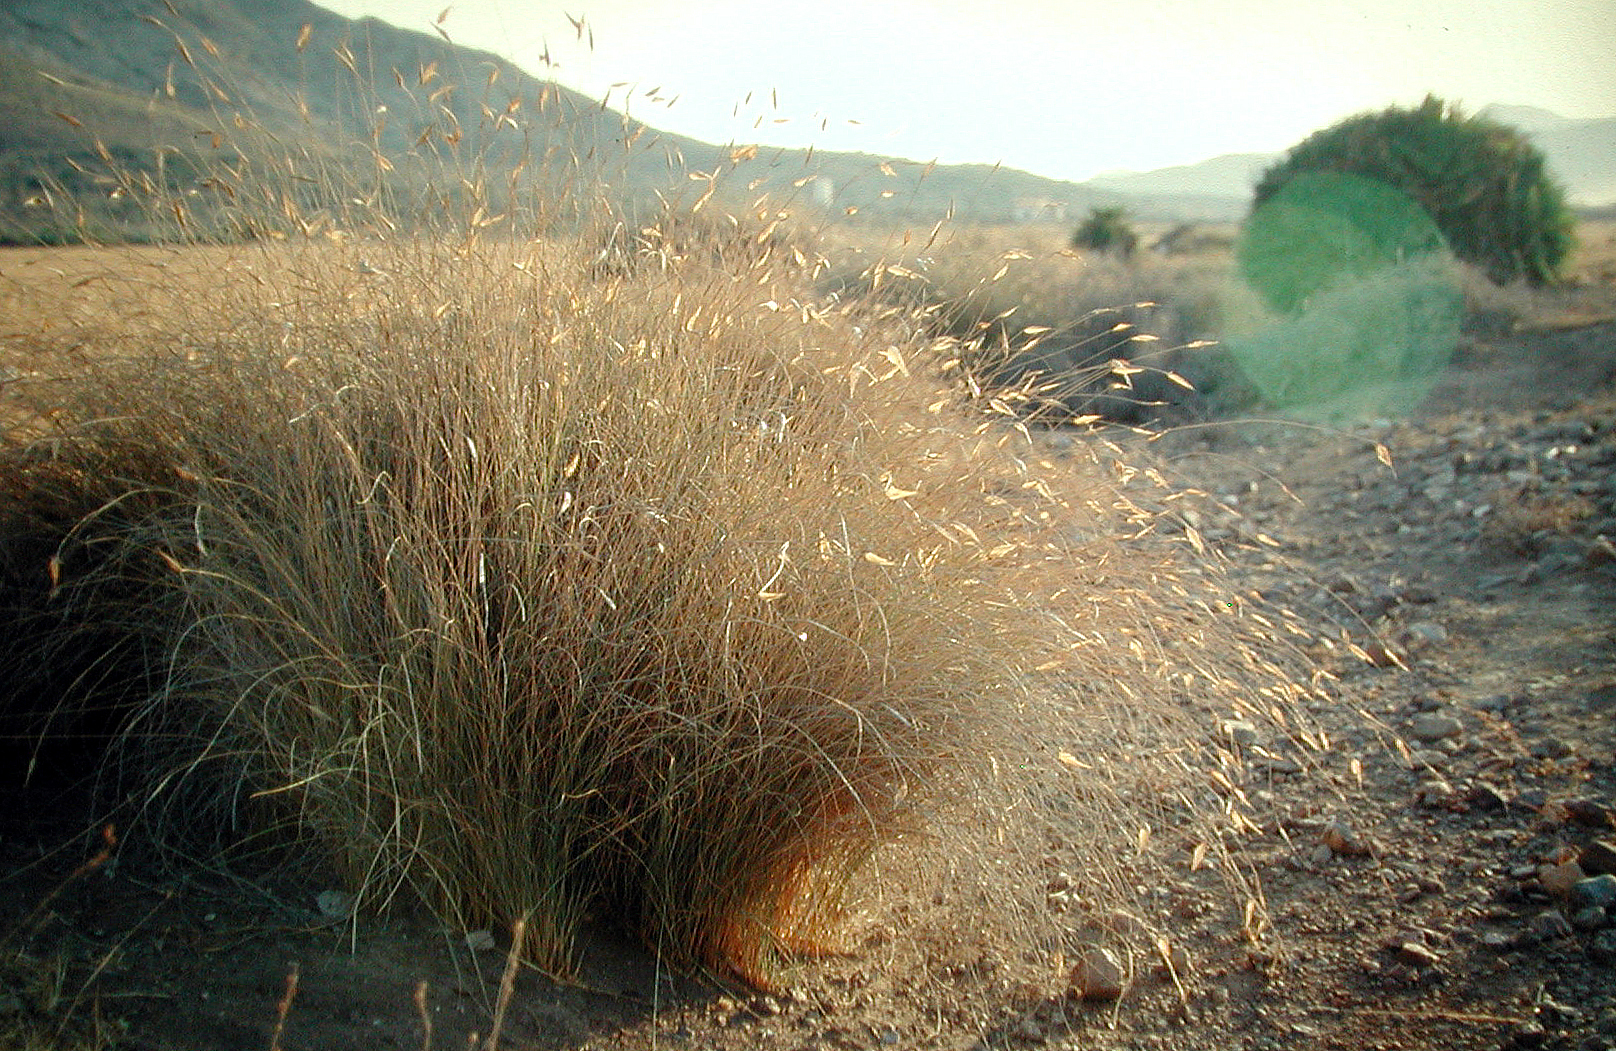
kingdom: Plantae
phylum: Tracheophyta
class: Liliopsida
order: Poales
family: Poaceae
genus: Lygeum
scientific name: Lygeum spartum
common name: Albardine
